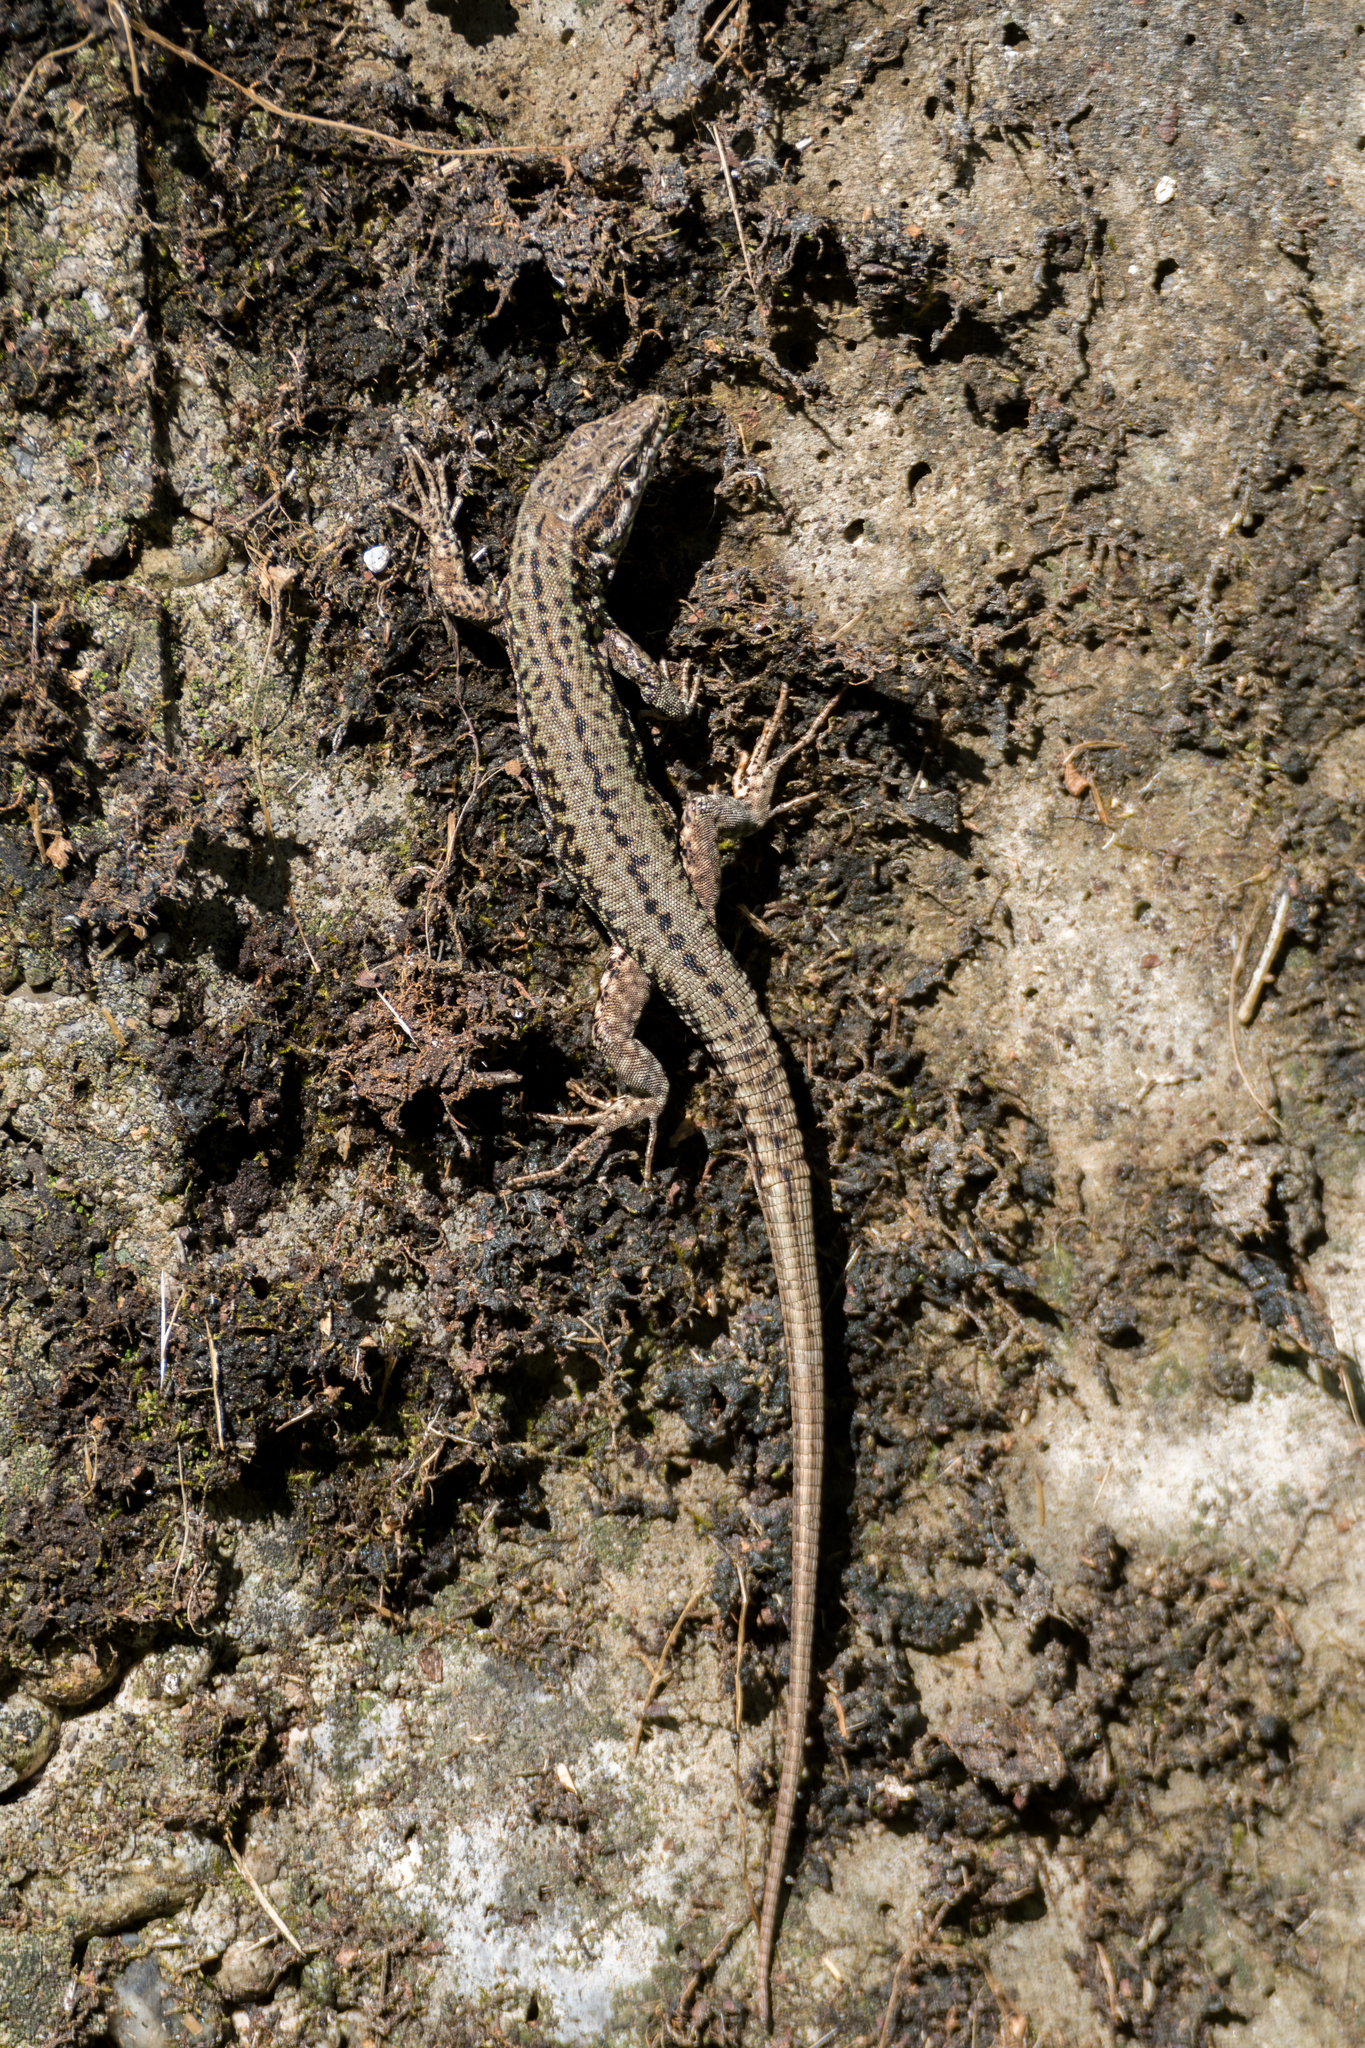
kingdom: Animalia
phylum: Chordata
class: Squamata
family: Lacertidae
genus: Podarcis
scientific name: Podarcis muralis
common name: Common wall lizard
